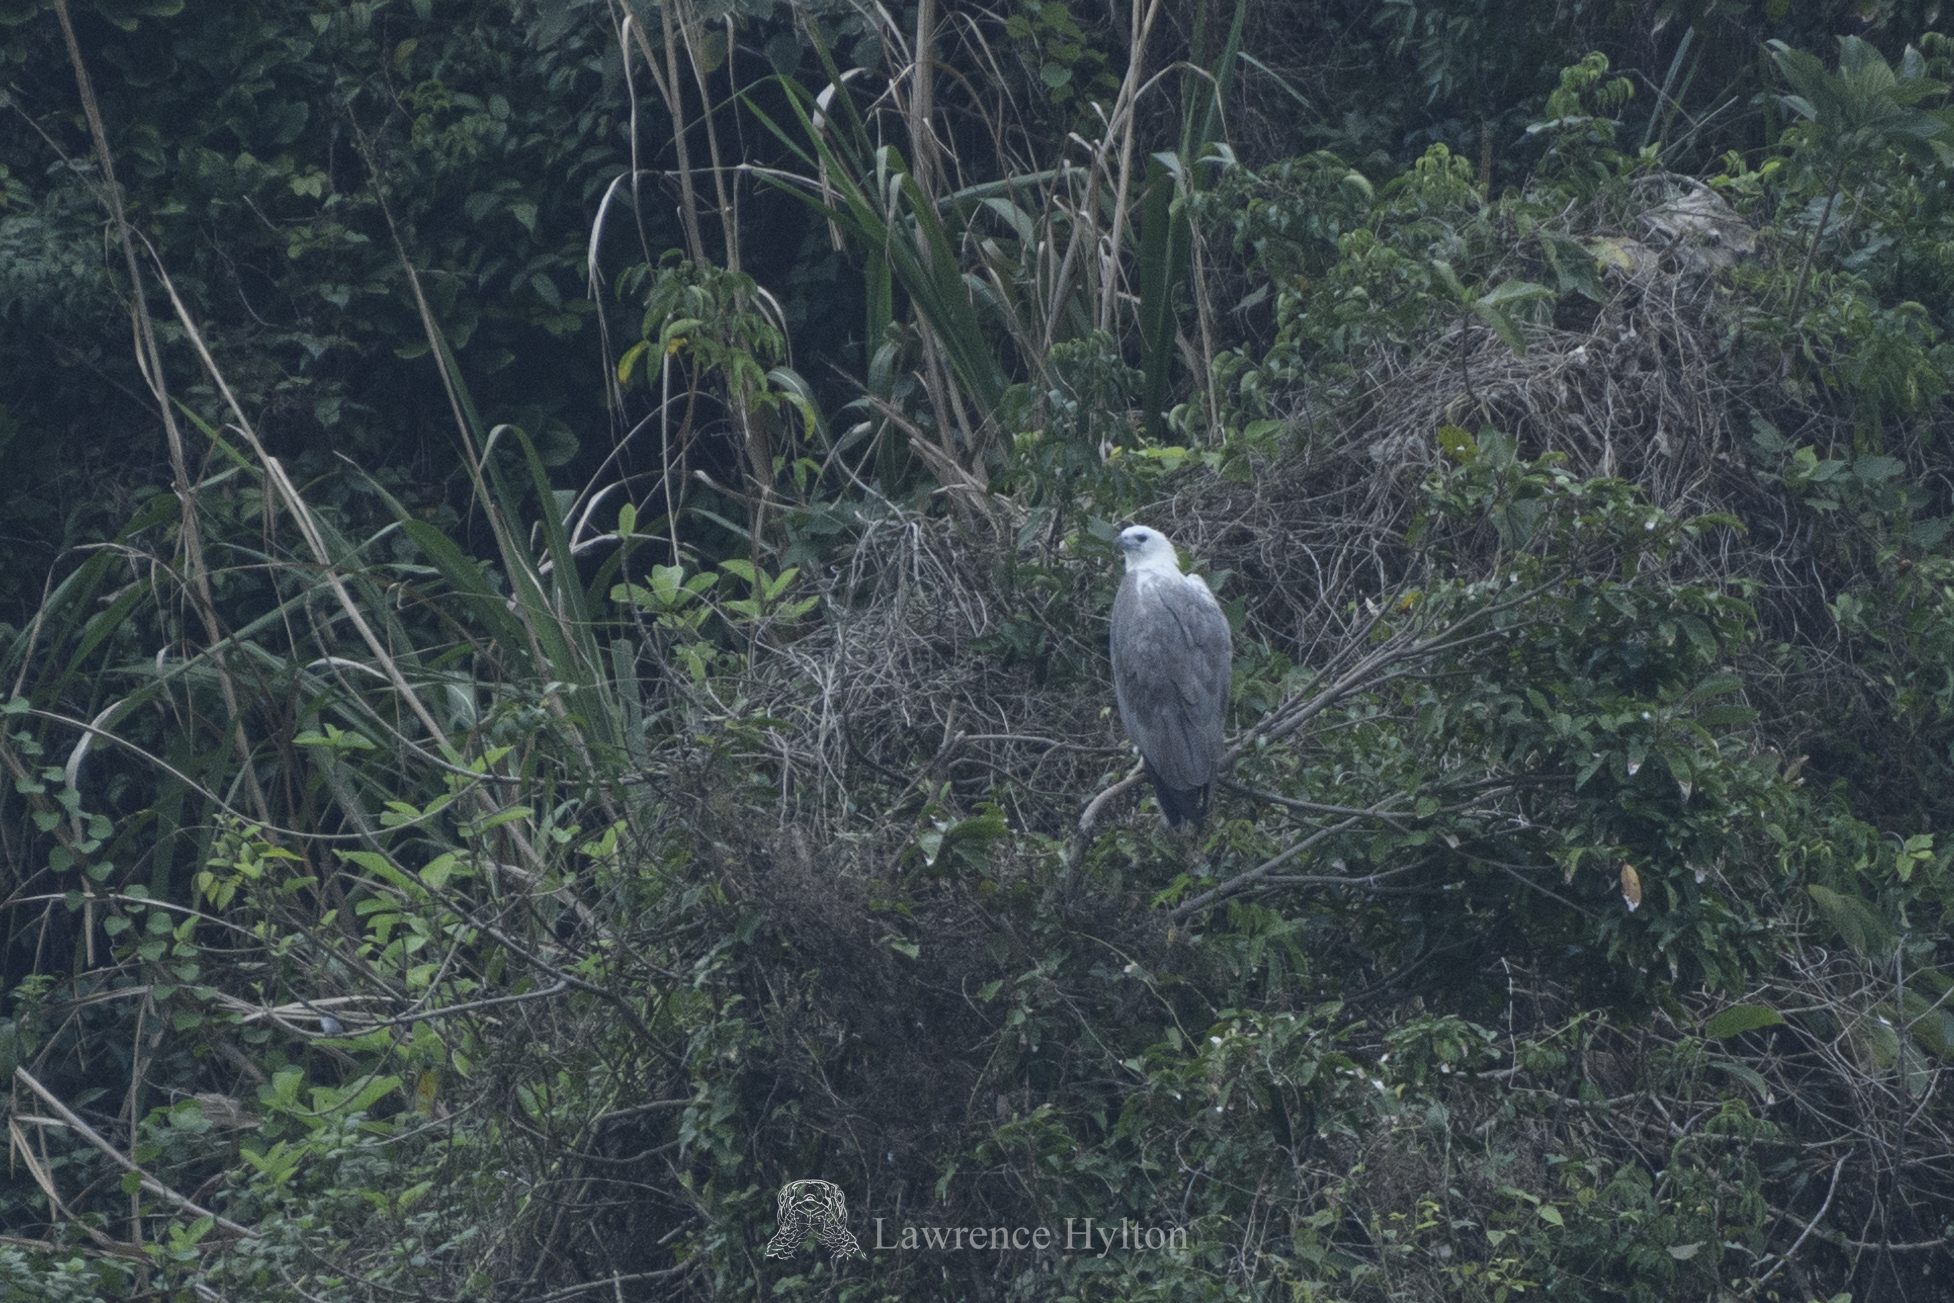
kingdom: Animalia
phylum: Chordata
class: Aves
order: Accipitriformes
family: Accipitridae
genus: Haliaeetus
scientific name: Haliaeetus leucogaster
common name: White-bellied sea eagle
